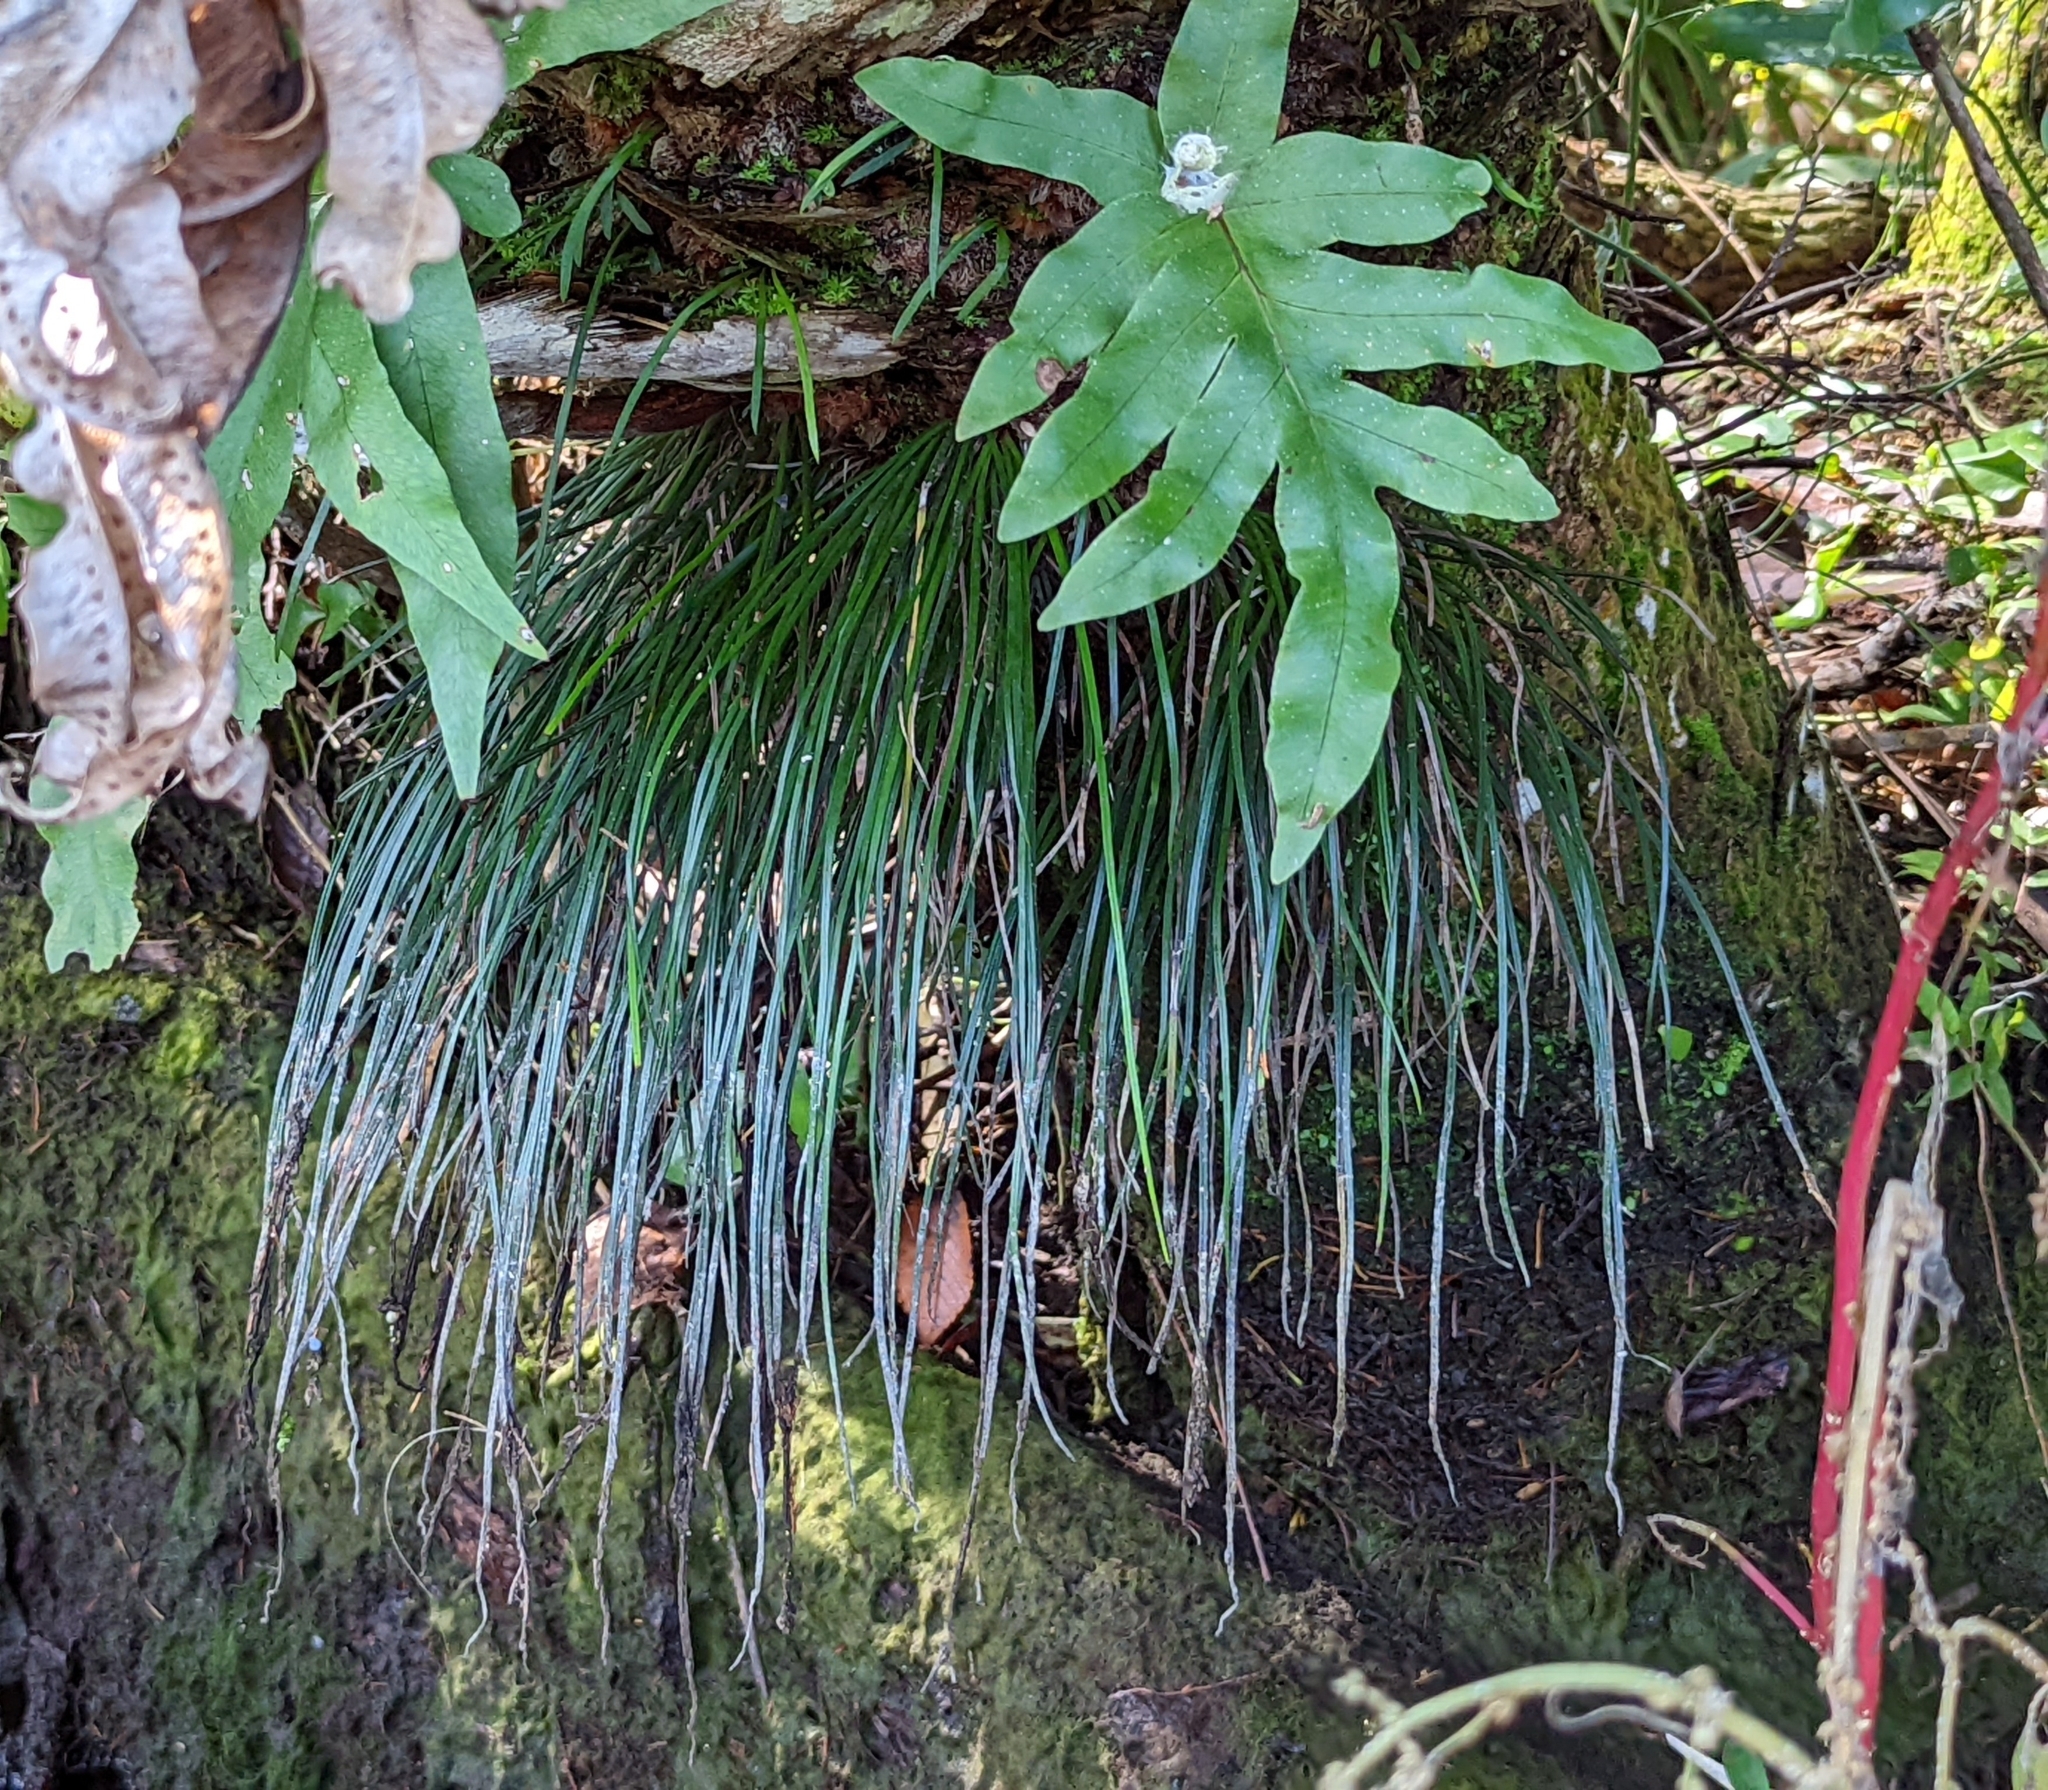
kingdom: Plantae
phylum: Tracheophyta
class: Polypodiopsida
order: Polypodiales
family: Pteridaceae
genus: Vittaria
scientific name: Vittaria lineata
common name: Shoestring fern
